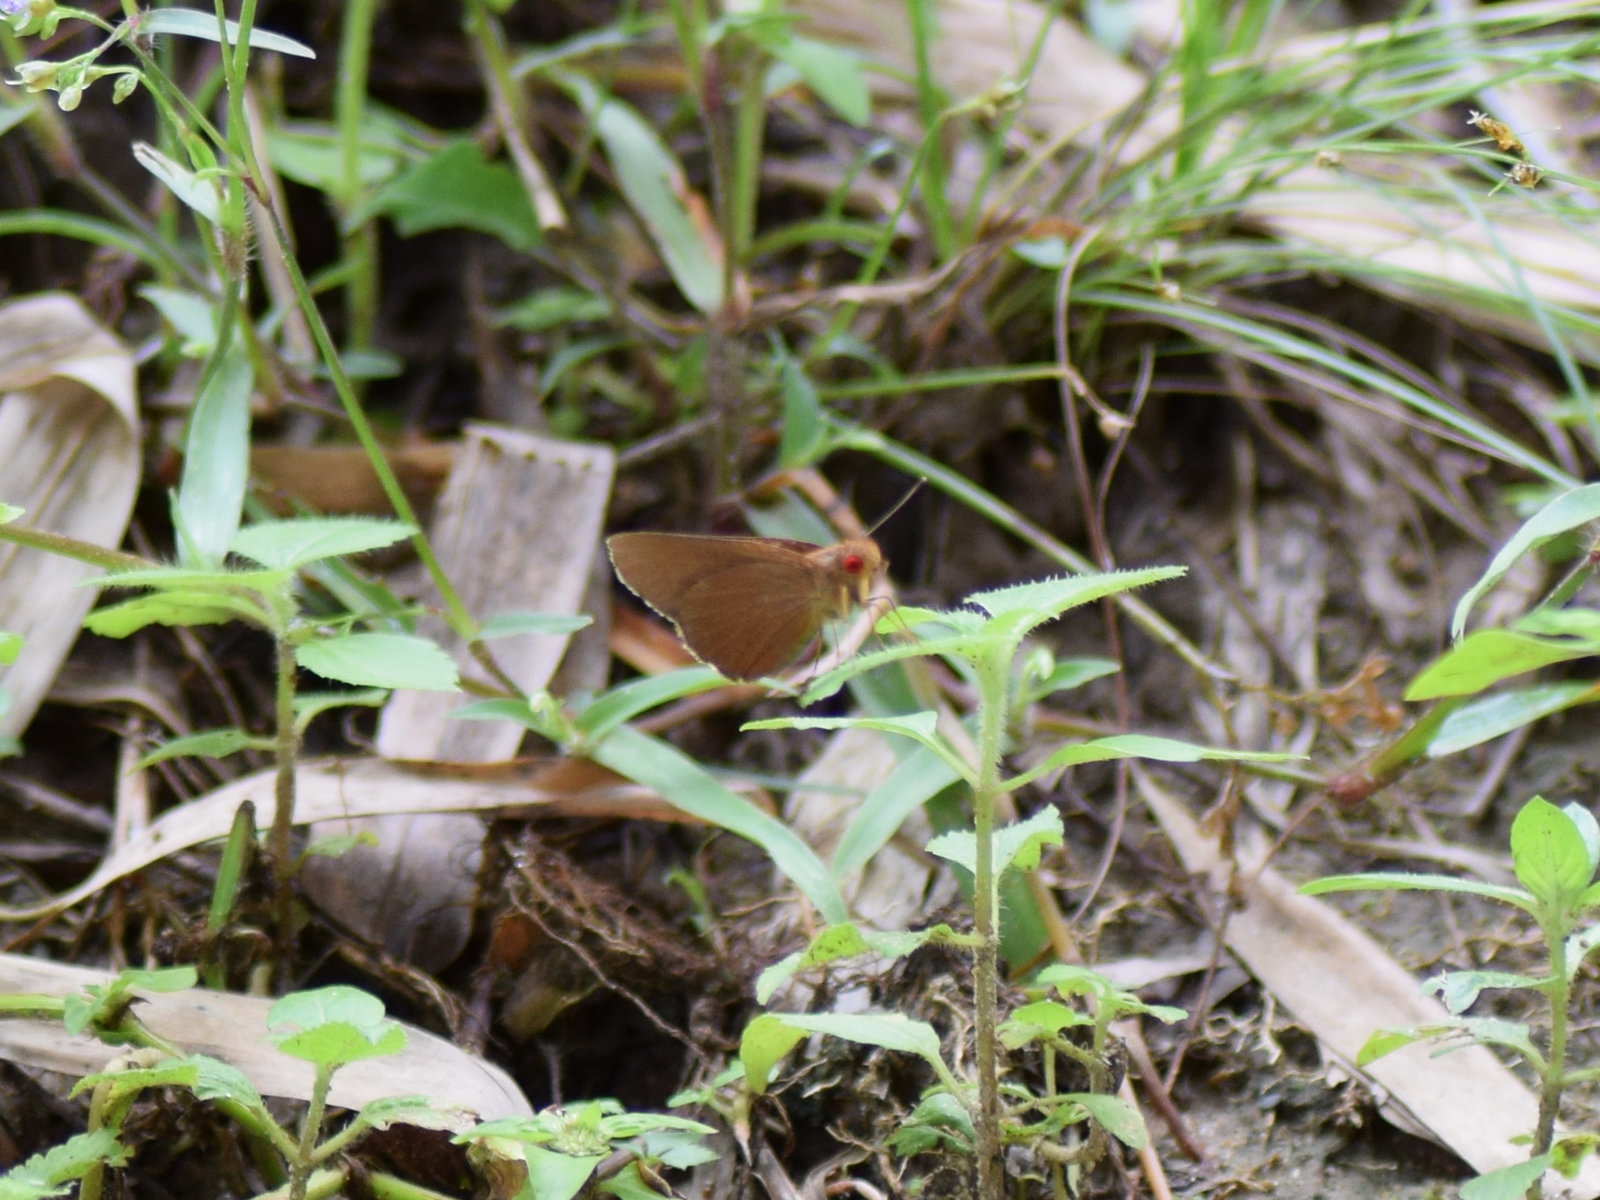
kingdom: Animalia
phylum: Arthropoda
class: Insecta
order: Lepidoptera
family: Hesperiidae
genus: Matapa
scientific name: Matapa aria
